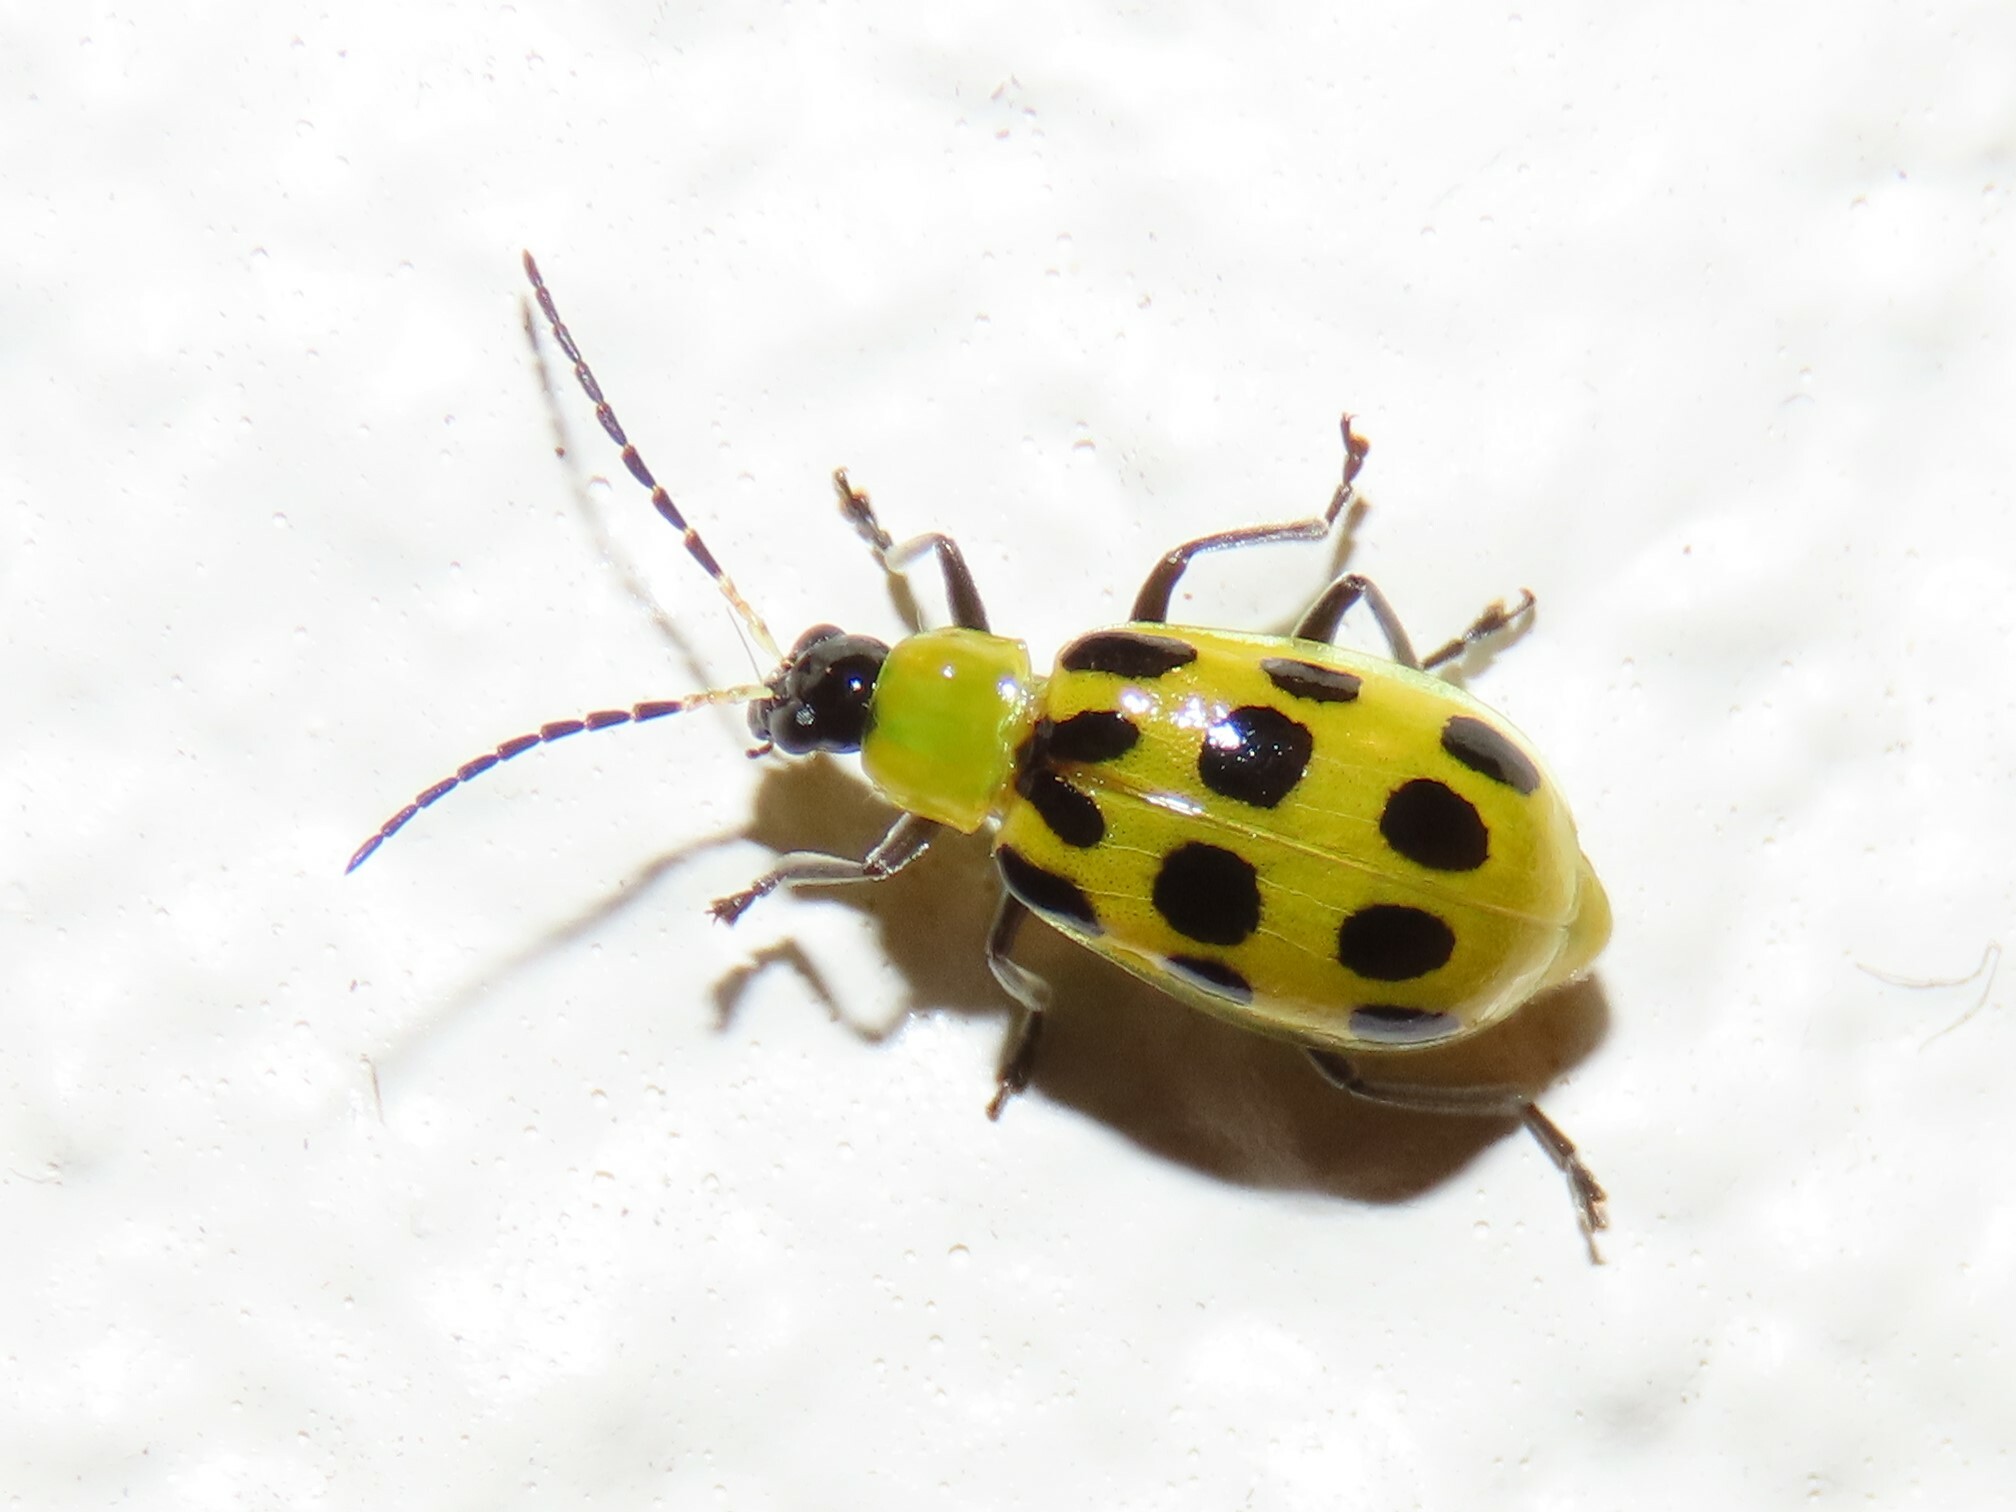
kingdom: Animalia
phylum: Arthropoda
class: Insecta
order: Coleoptera
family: Chrysomelidae
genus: Diabrotica
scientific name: Diabrotica undecimpunctata
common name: Spotted cucumber beetle
